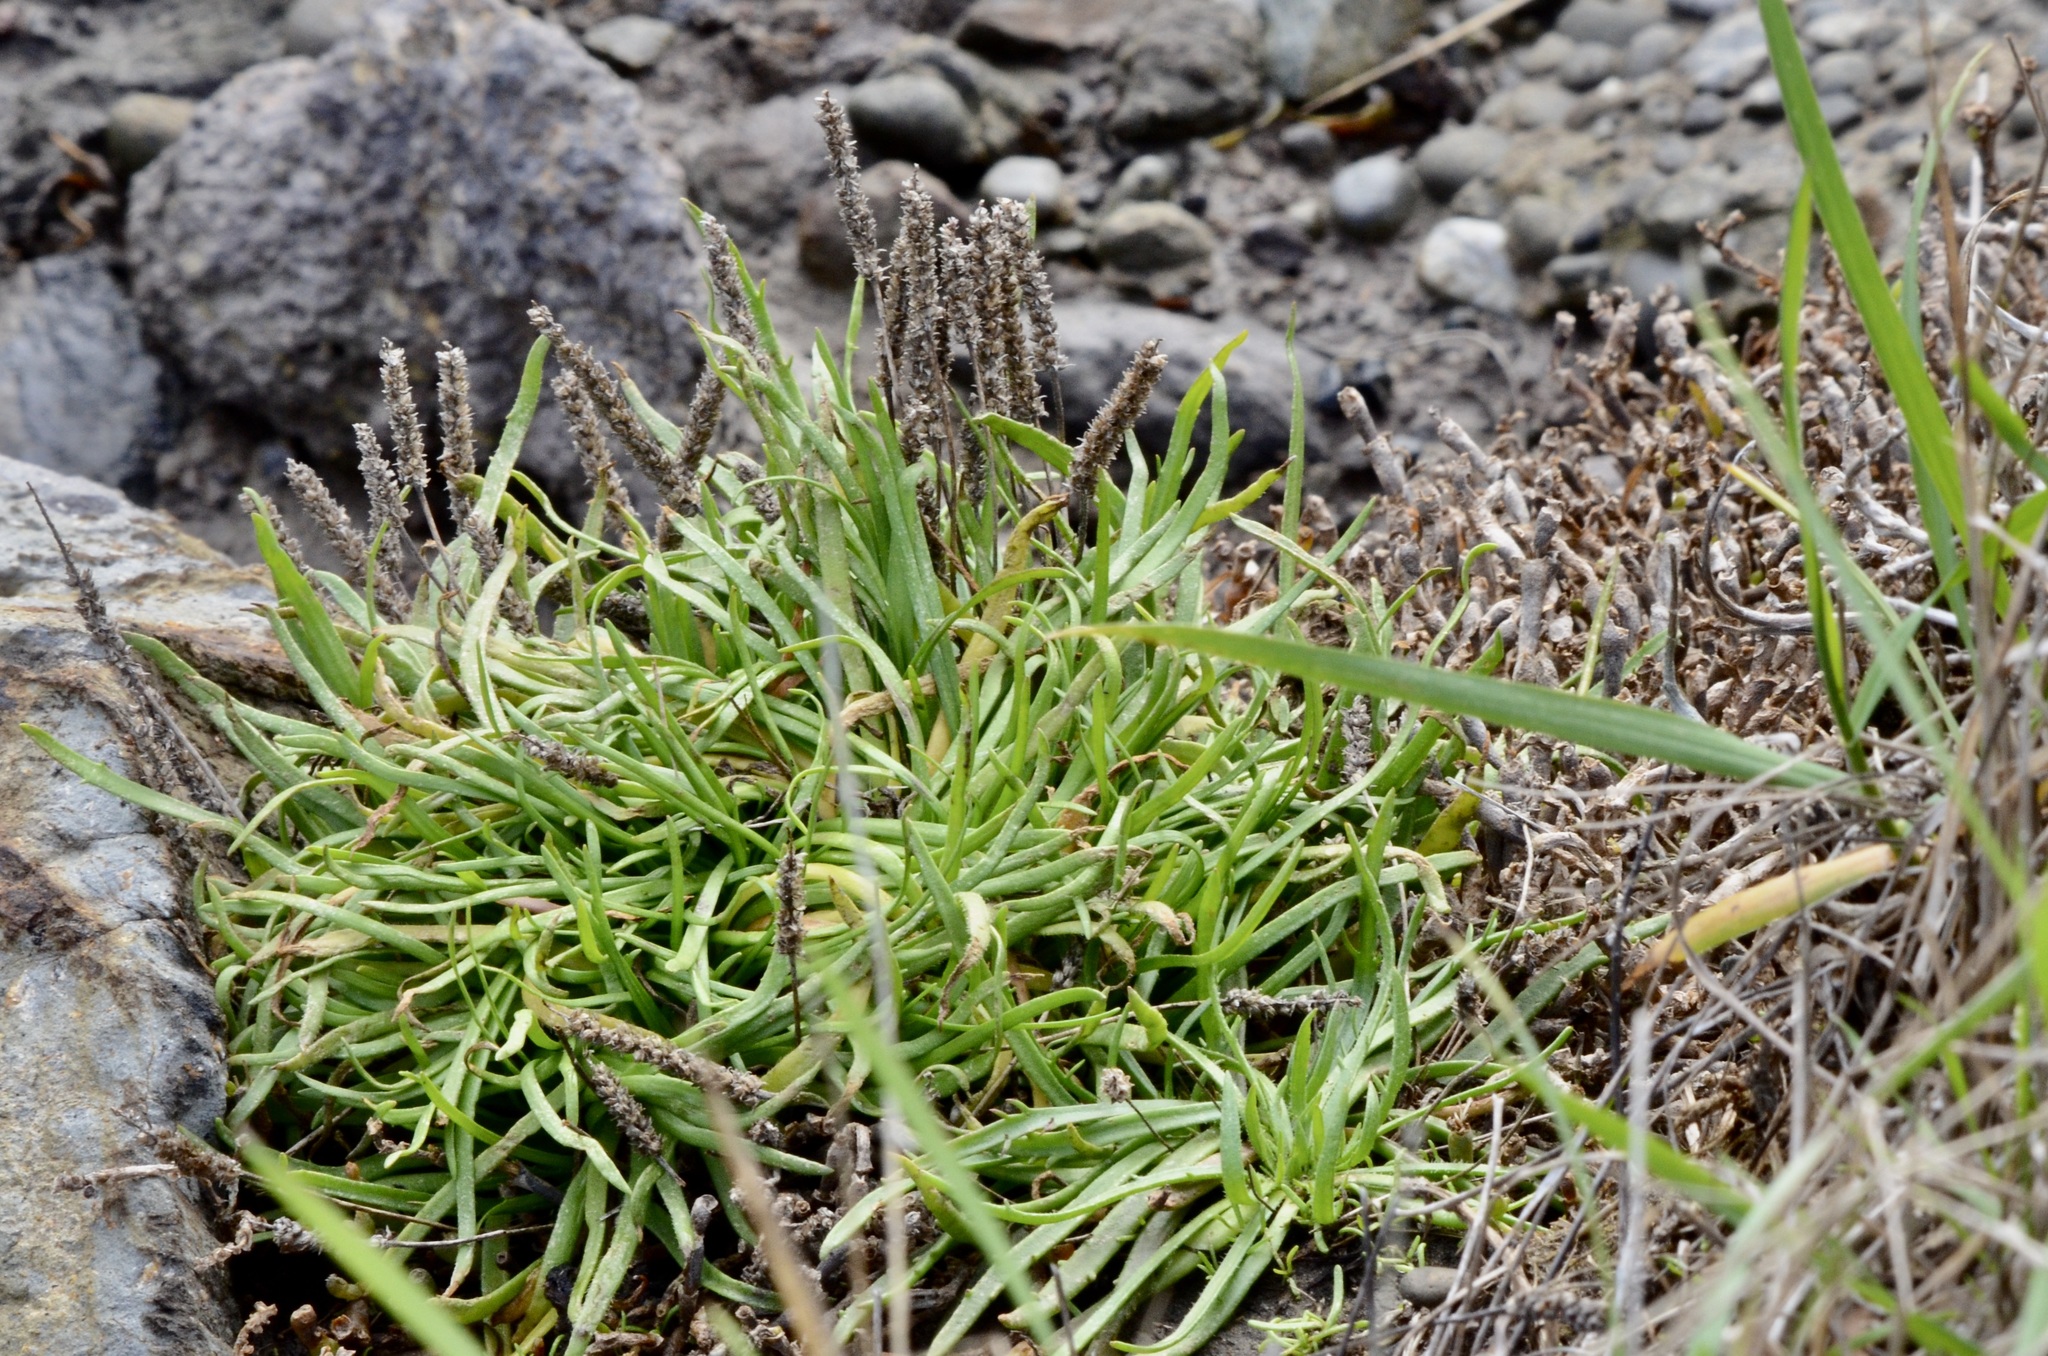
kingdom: Plantae
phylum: Tracheophyta
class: Magnoliopsida
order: Lamiales
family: Plantaginaceae
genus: Plantago
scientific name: Plantago coronopus
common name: Buck's-horn plantain
